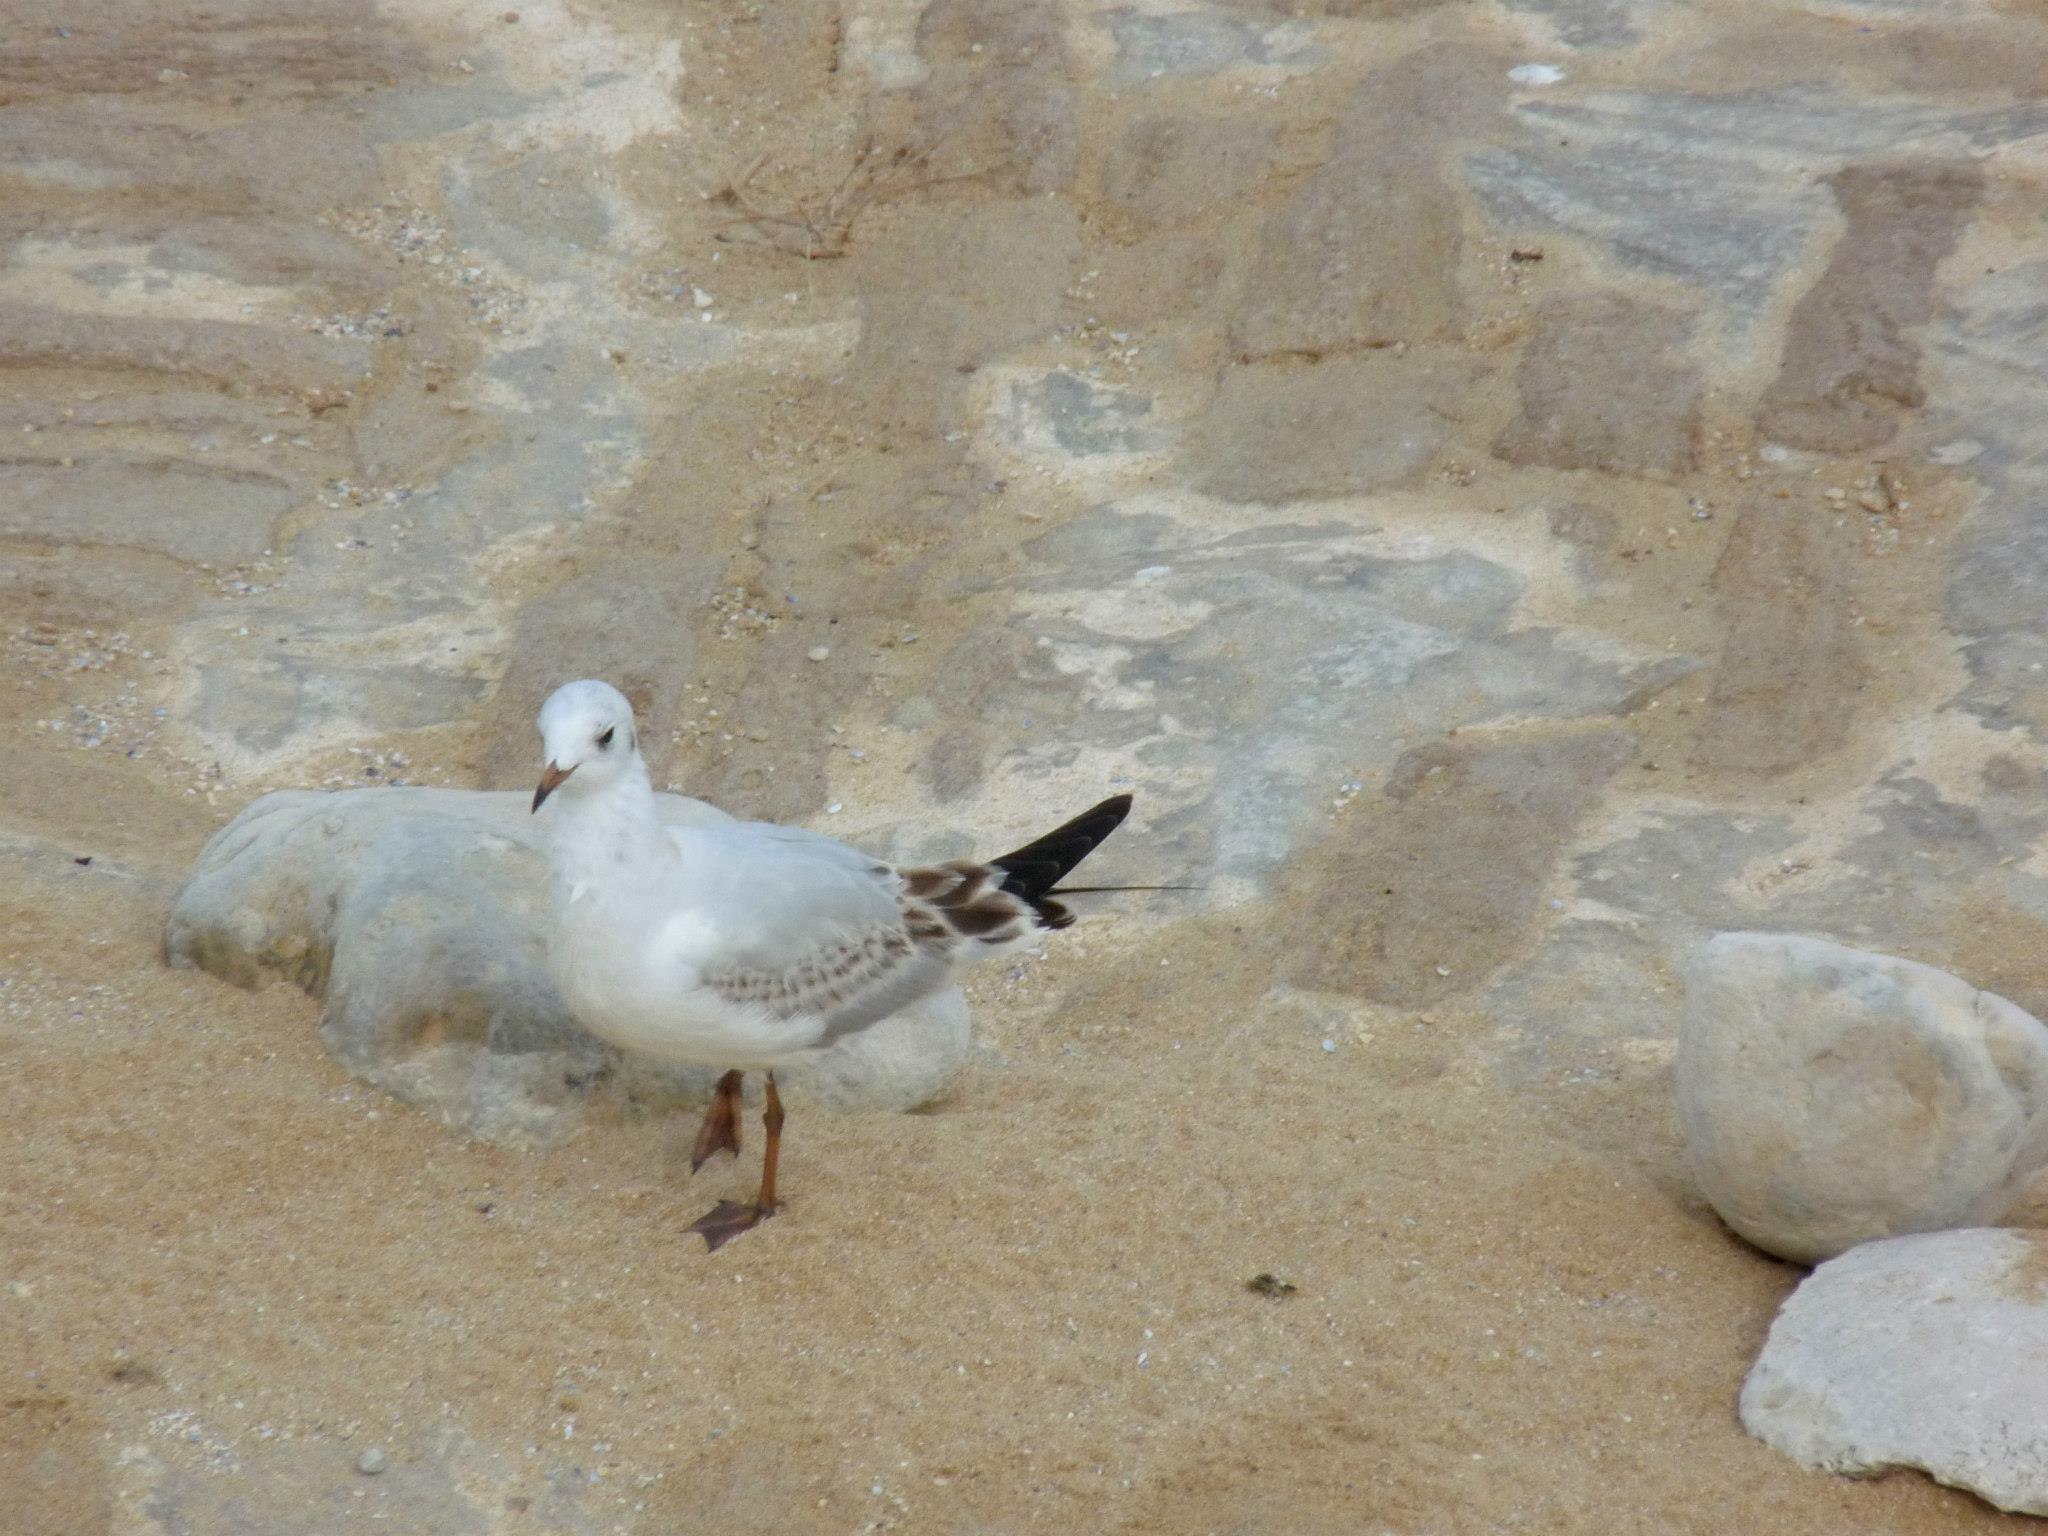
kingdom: Animalia
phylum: Chordata
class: Aves
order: Charadriiformes
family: Laridae
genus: Chroicocephalus
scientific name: Chroicocephalus ridibundus
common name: Black-headed gull
